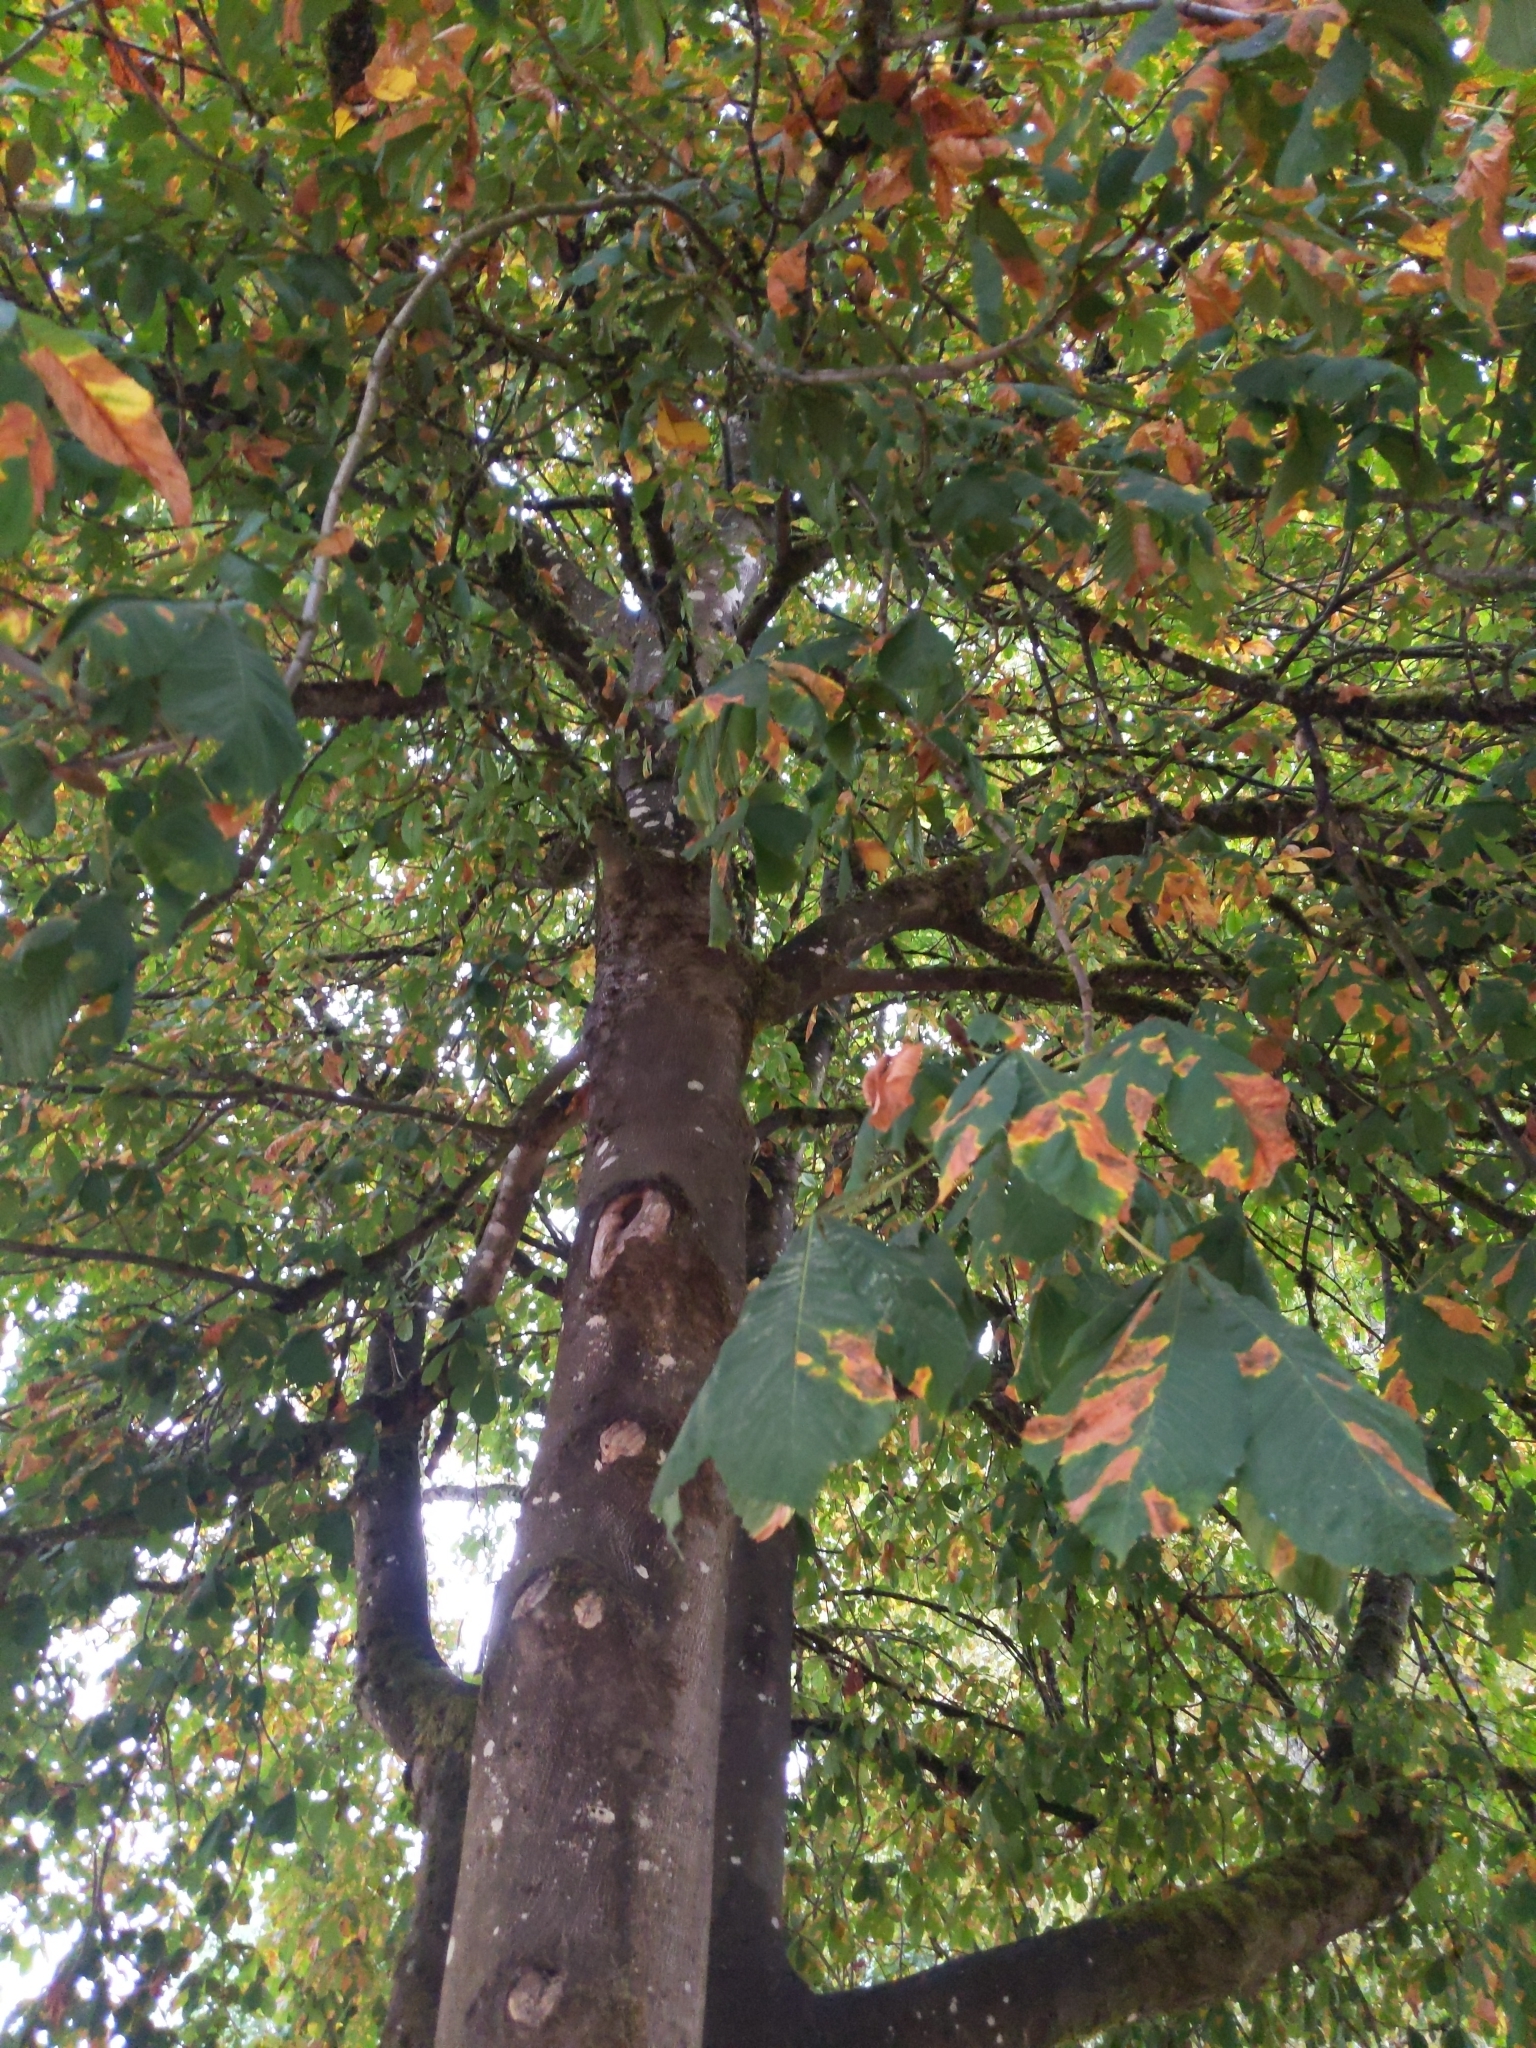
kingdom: Plantae
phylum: Tracheophyta
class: Magnoliopsida
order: Sapindales
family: Sapindaceae
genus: Aesculus
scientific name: Aesculus hippocastanum
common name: Horse-chestnut
